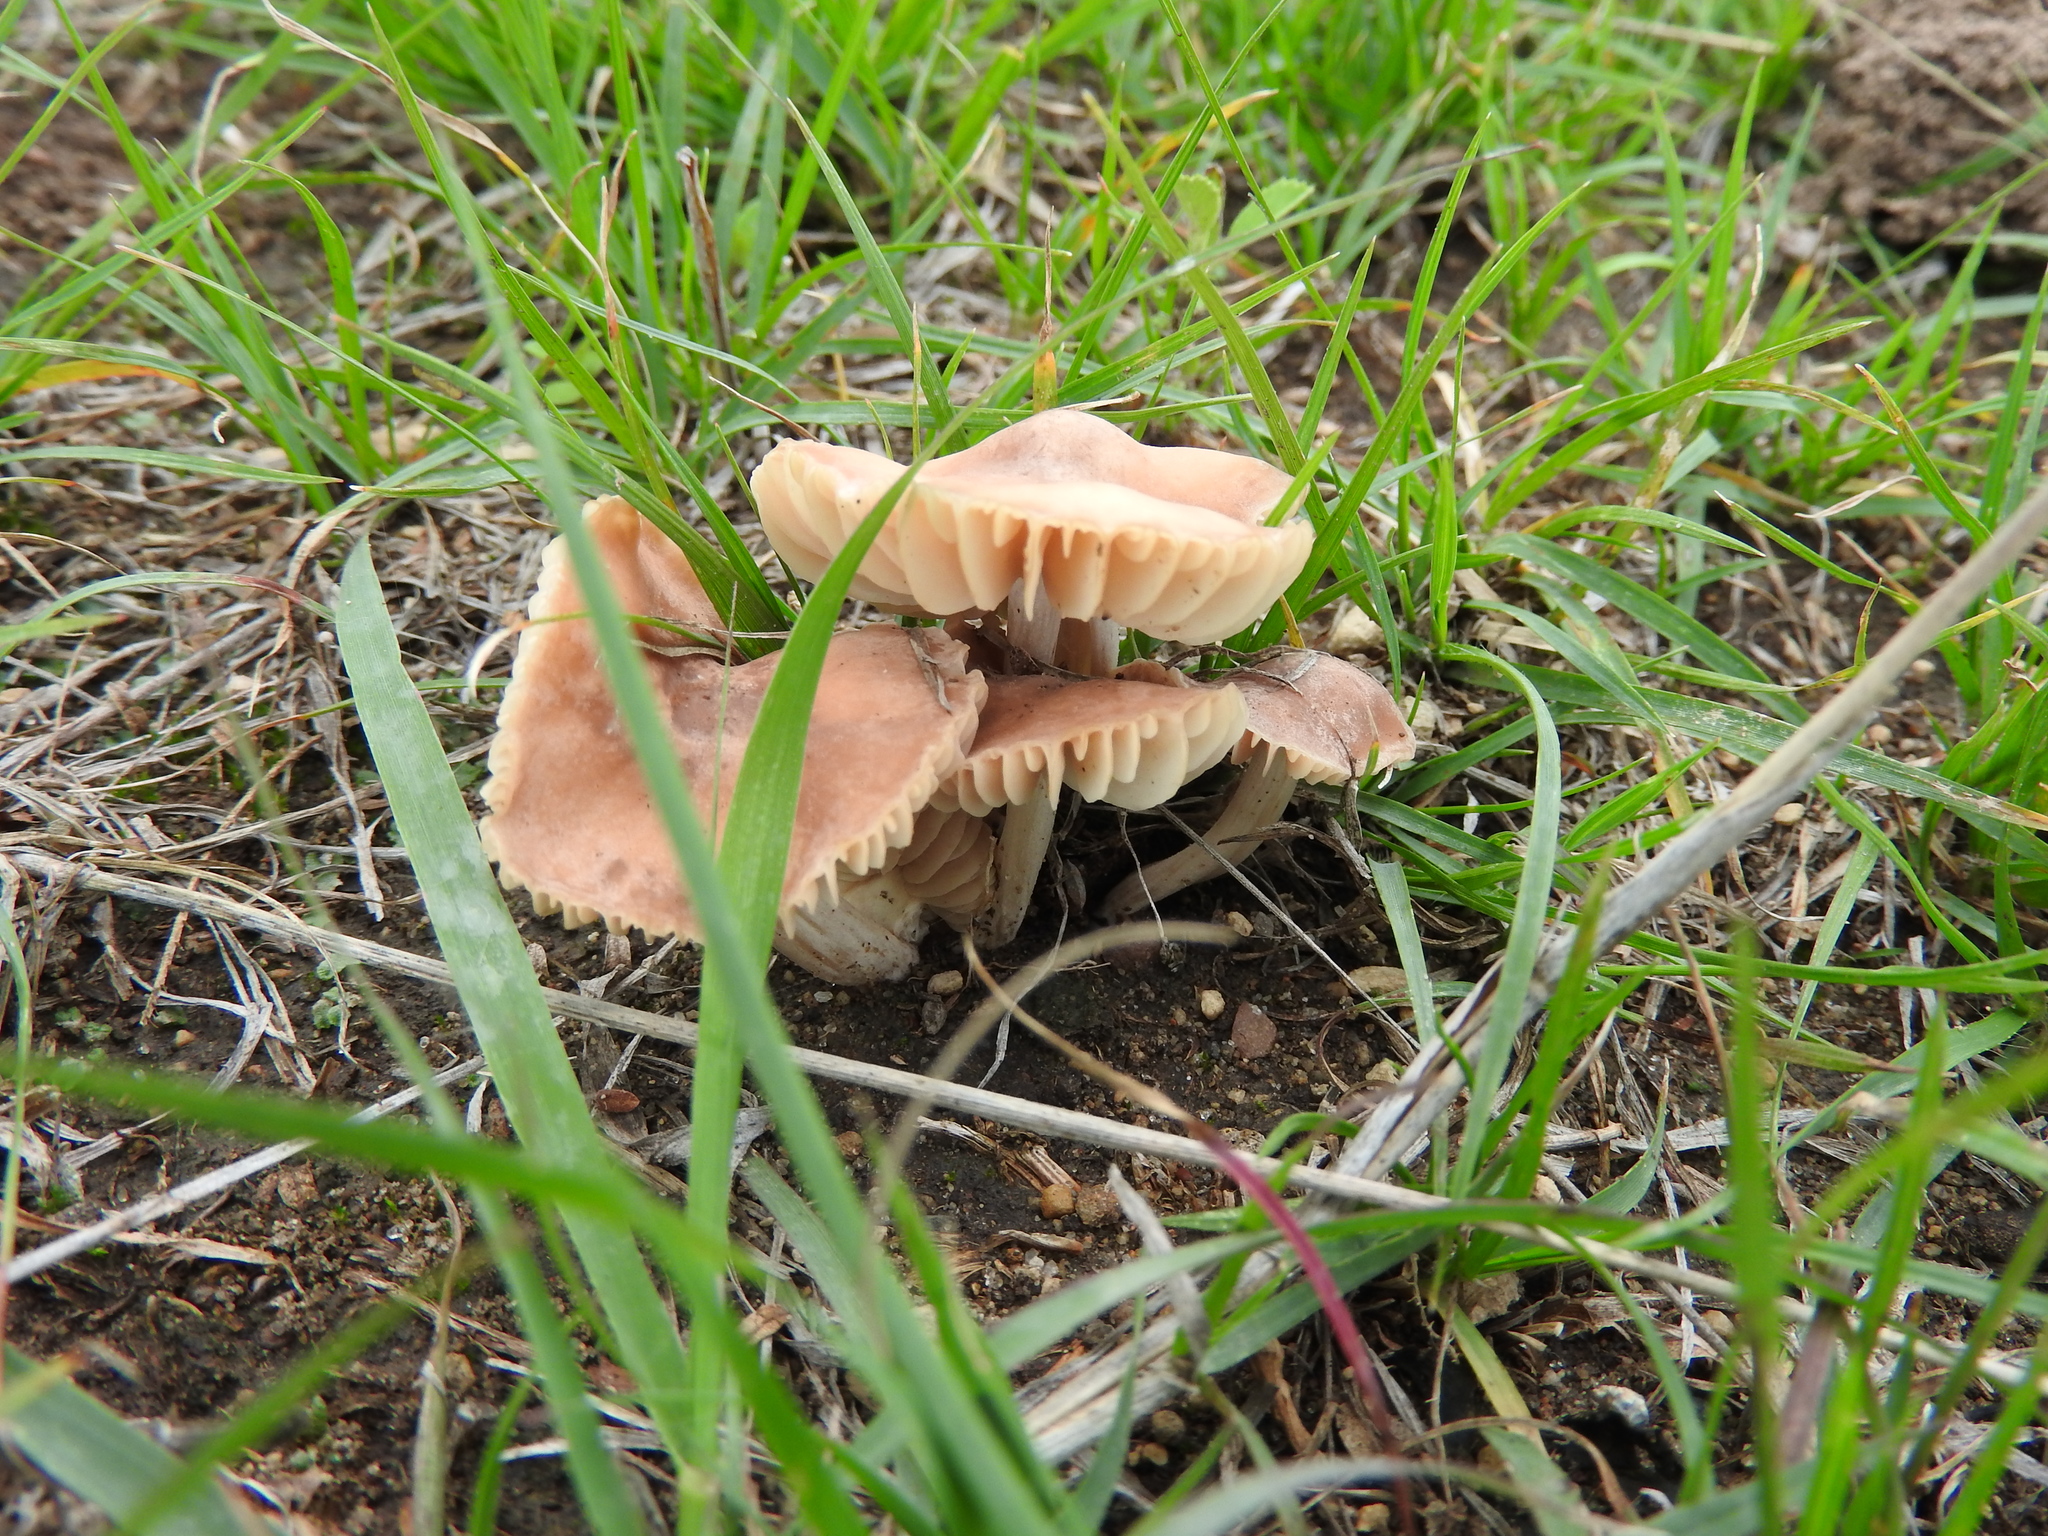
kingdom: Fungi
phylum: Basidiomycota
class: Agaricomycetes
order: Agaricales
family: Marasmiaceae
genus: Marasmius
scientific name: Marasmius oreades
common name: Fairy ring champignon
